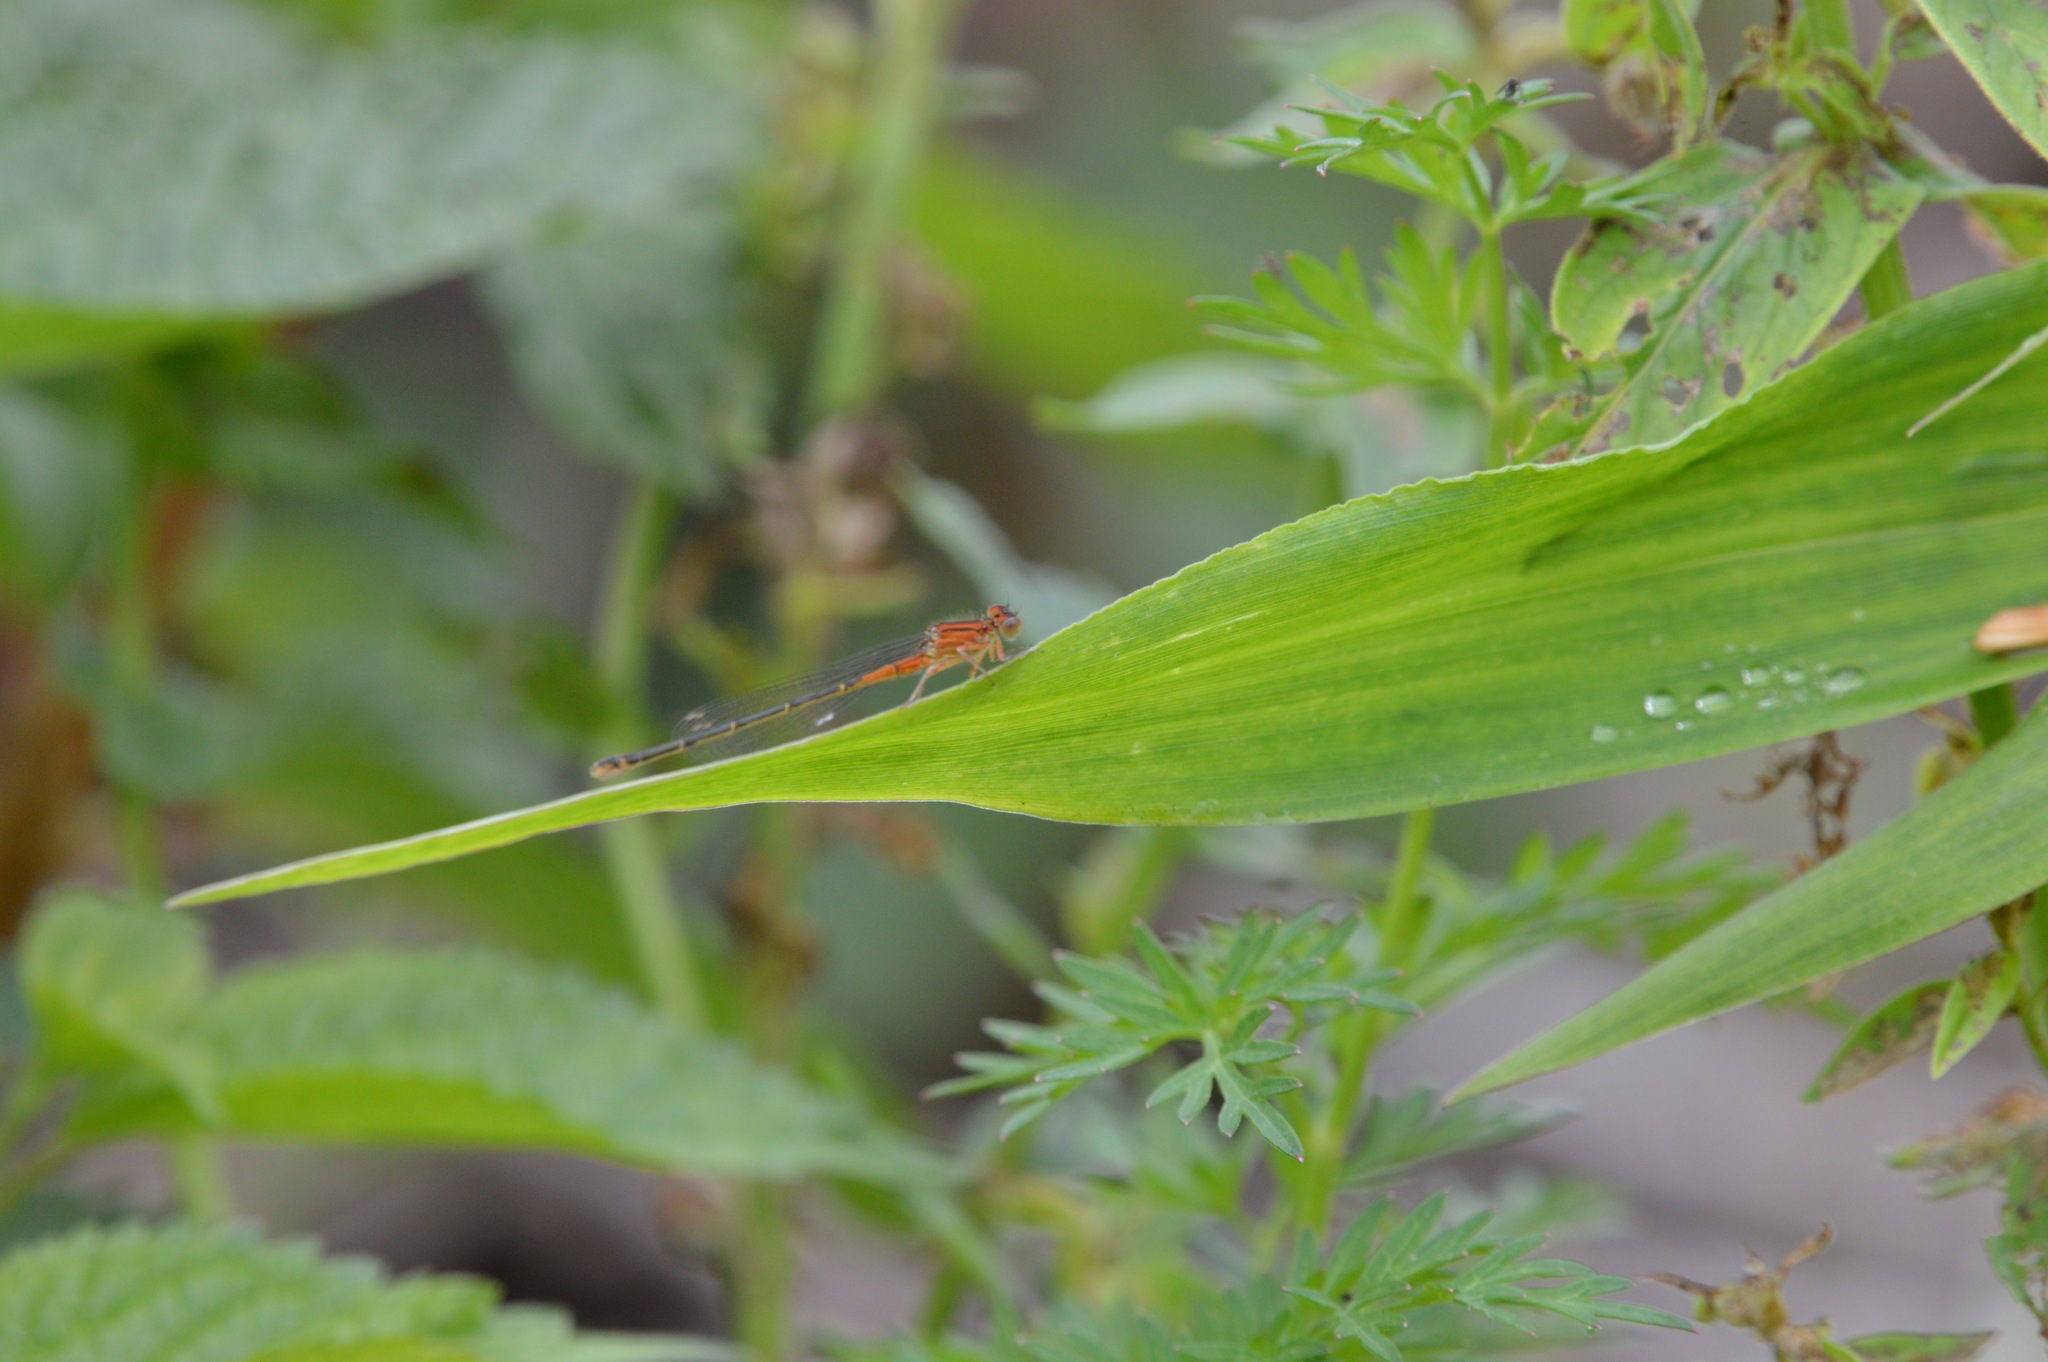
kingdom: Animalia
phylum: Arthropoda
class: Insecta
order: Odonata
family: Coenagrionidae
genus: Ischnura
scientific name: Ischnura verticalis
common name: Eastern forktail
